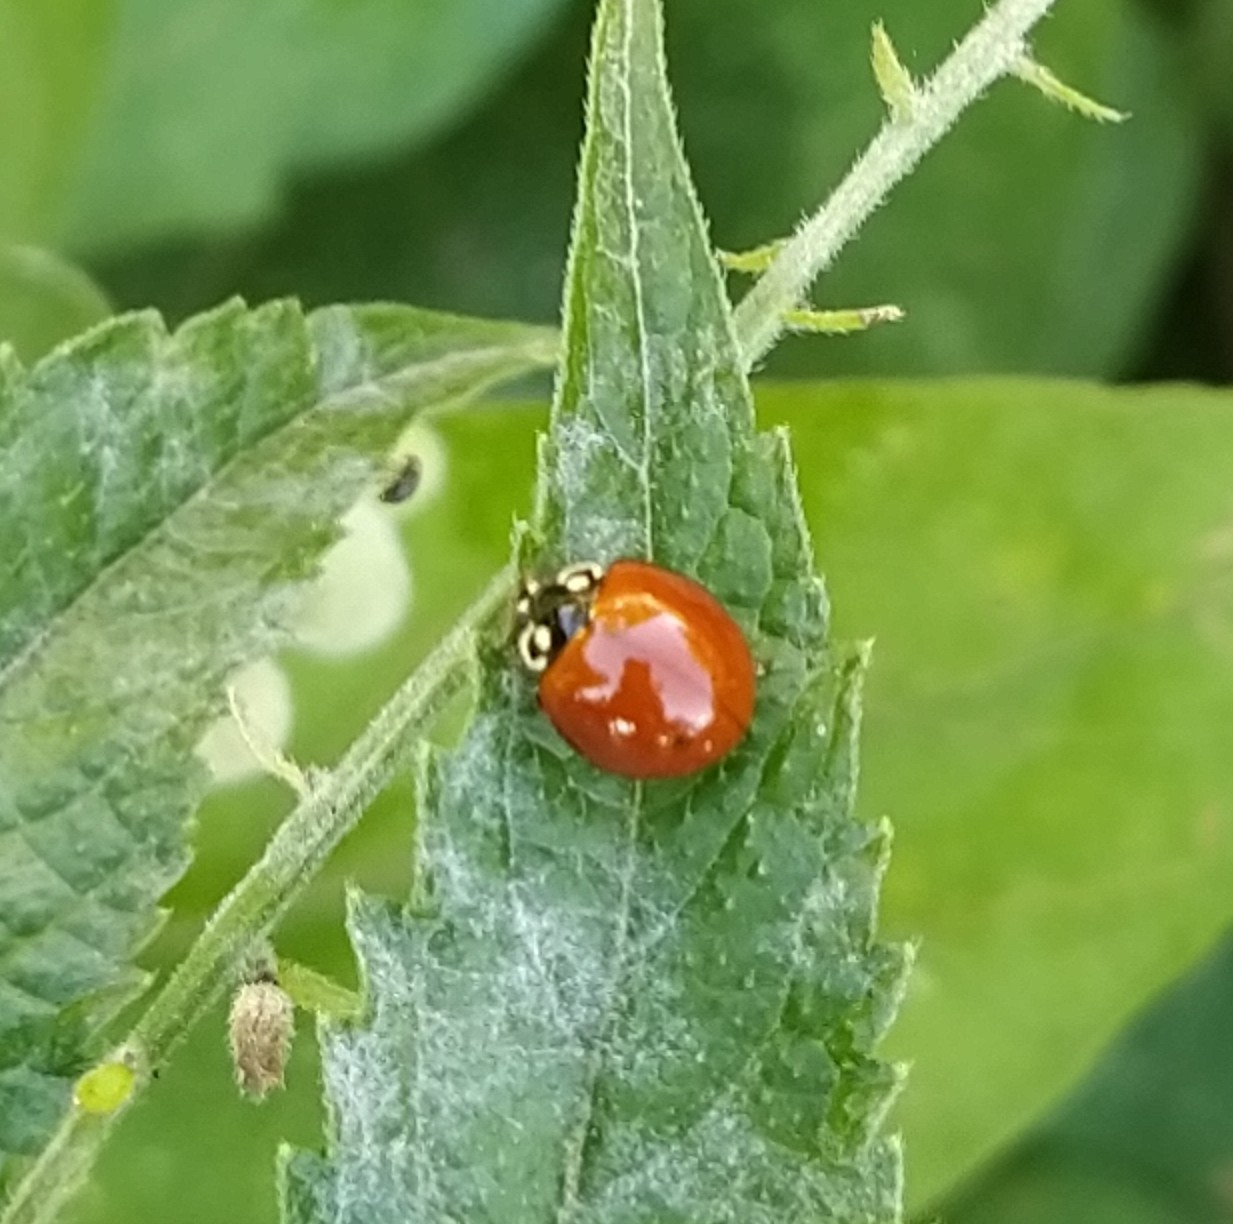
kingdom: Animalia
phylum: Arthropoda
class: Insecta
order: Coleoptera
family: Coccinellidae
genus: Cycloneda
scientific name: Cycloneda sanguinea
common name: Ladybird beetle
